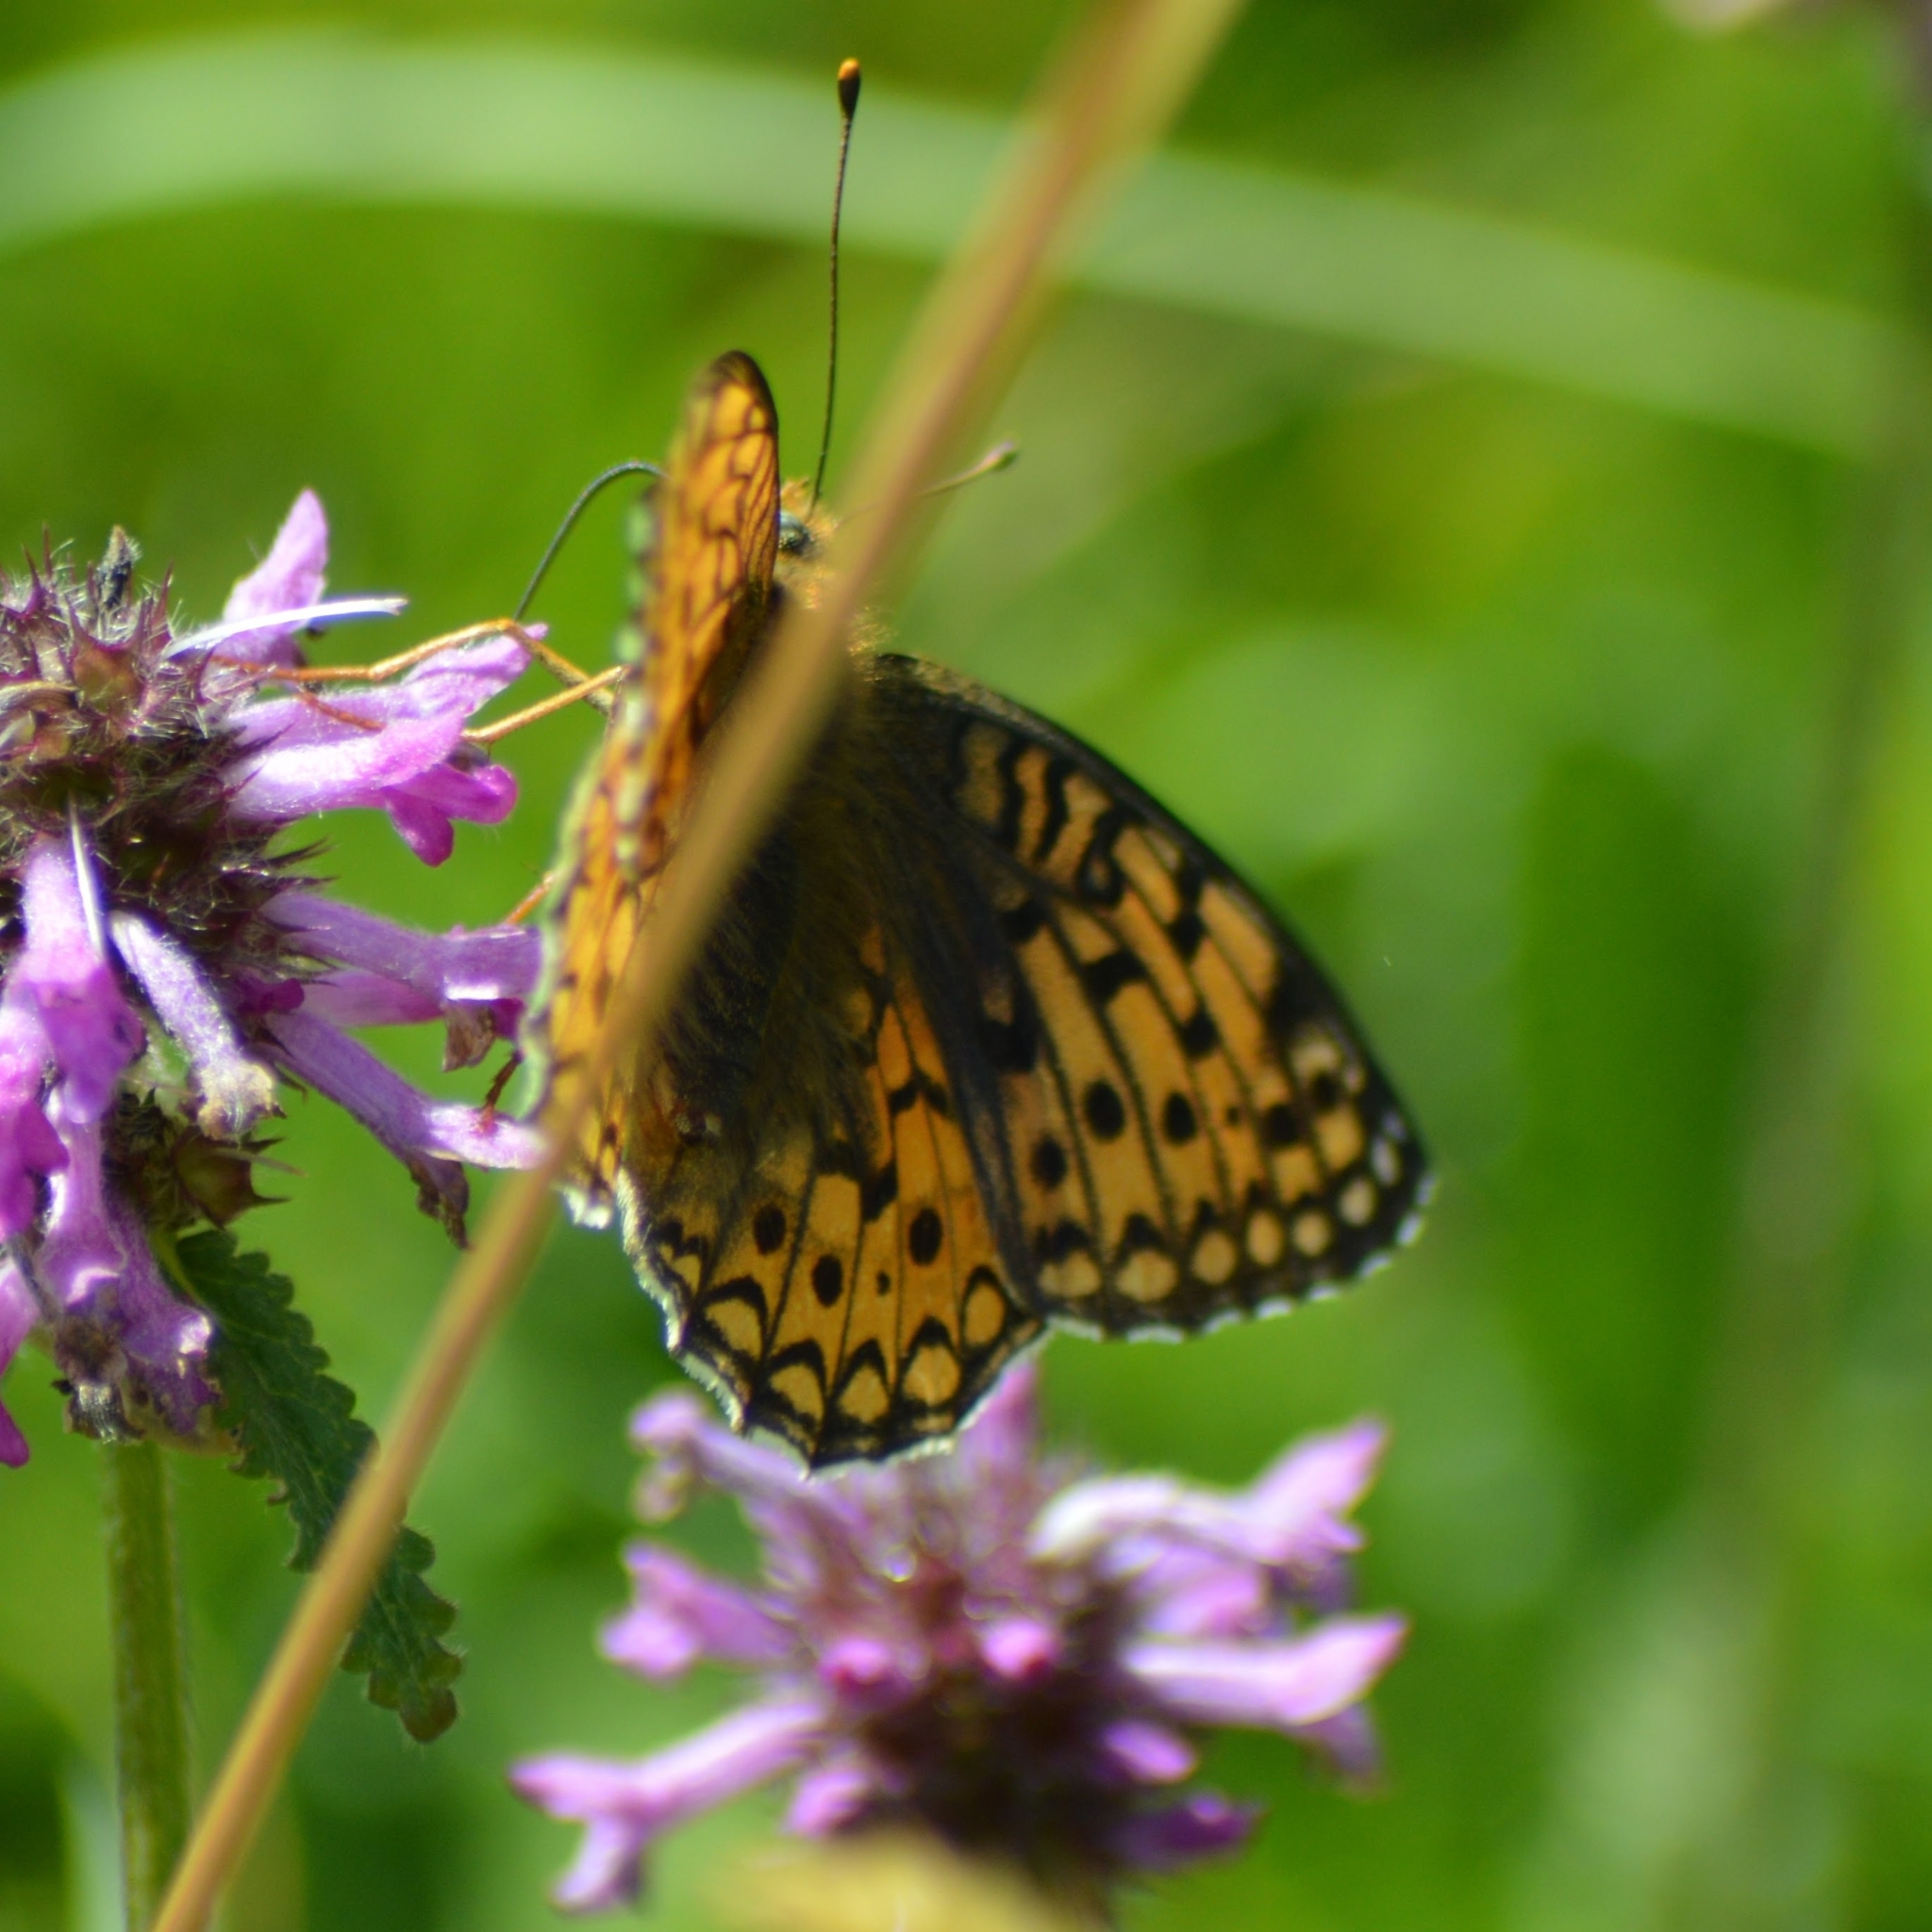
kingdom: Animalia
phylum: Arthropoda
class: Insecta
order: Lepidoptera
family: Nymphalidae
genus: Fabriciana
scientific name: Fabriciana niobe
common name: Niobe fritillary
